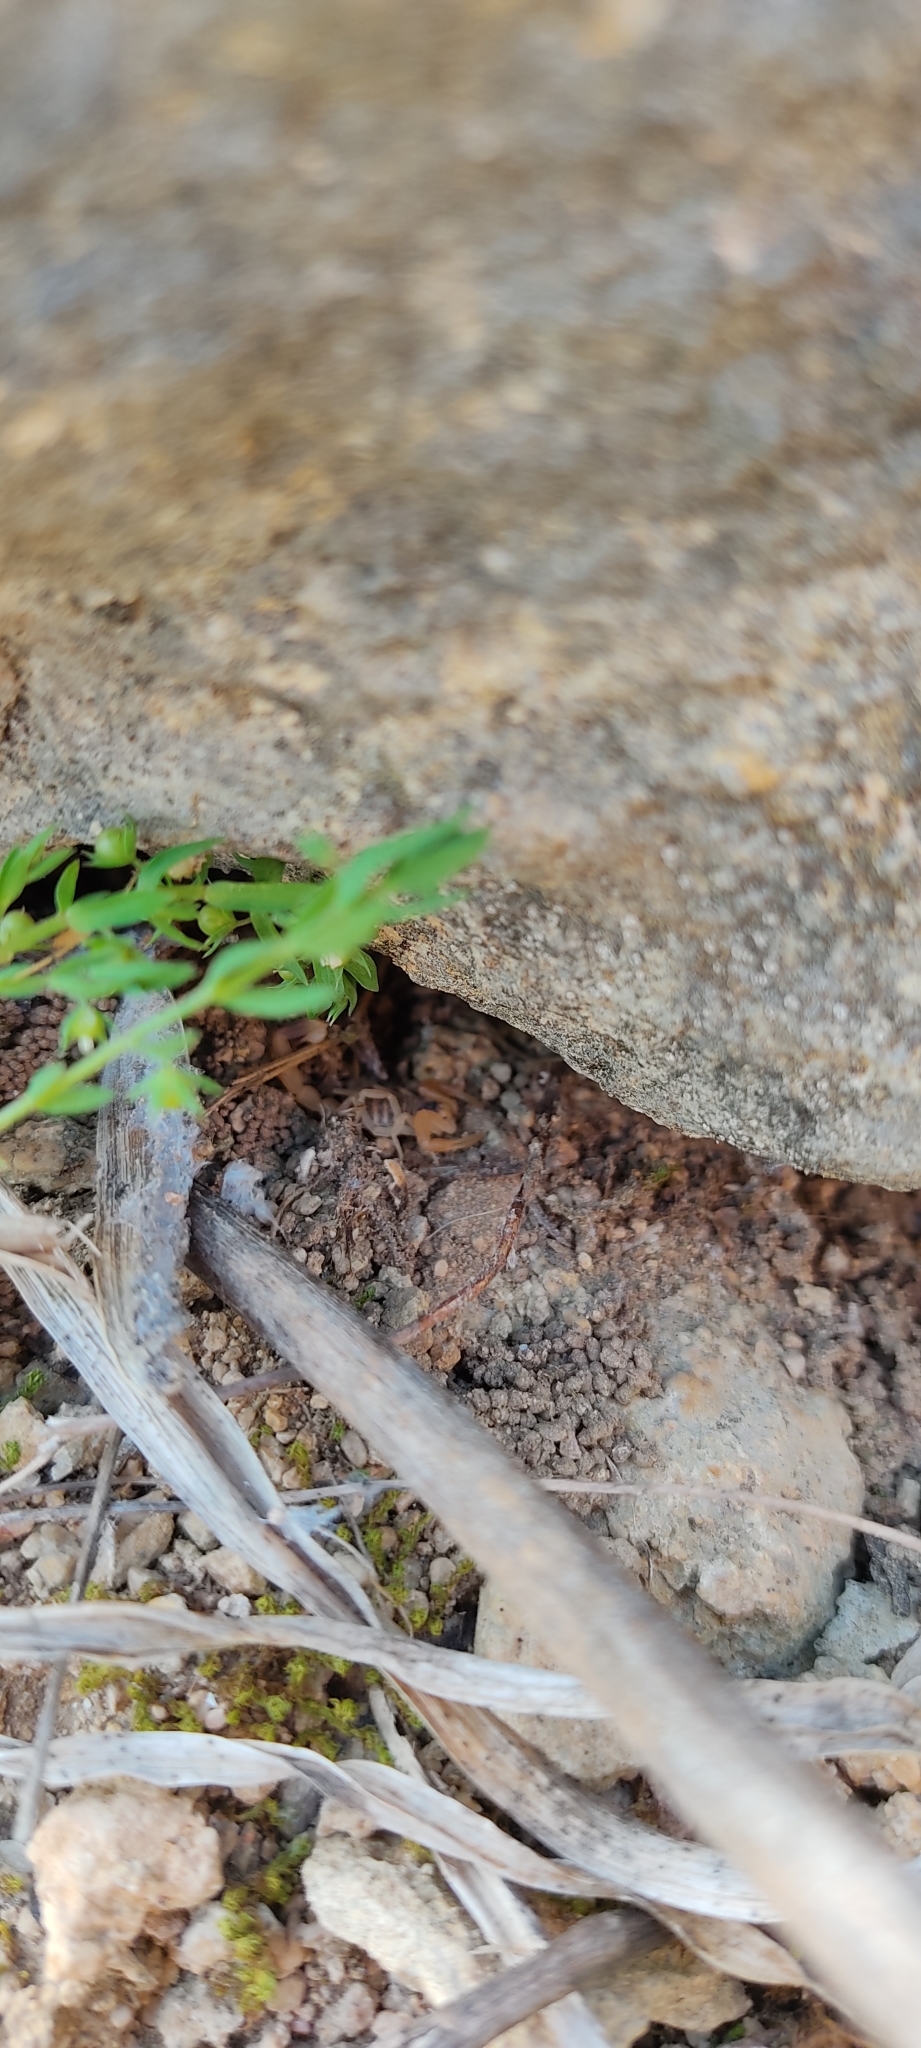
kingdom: Animalia
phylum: Arthropoda
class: Arachnida
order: Scorpiones
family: Buthidae
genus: Buthus
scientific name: Buthus occitanus
